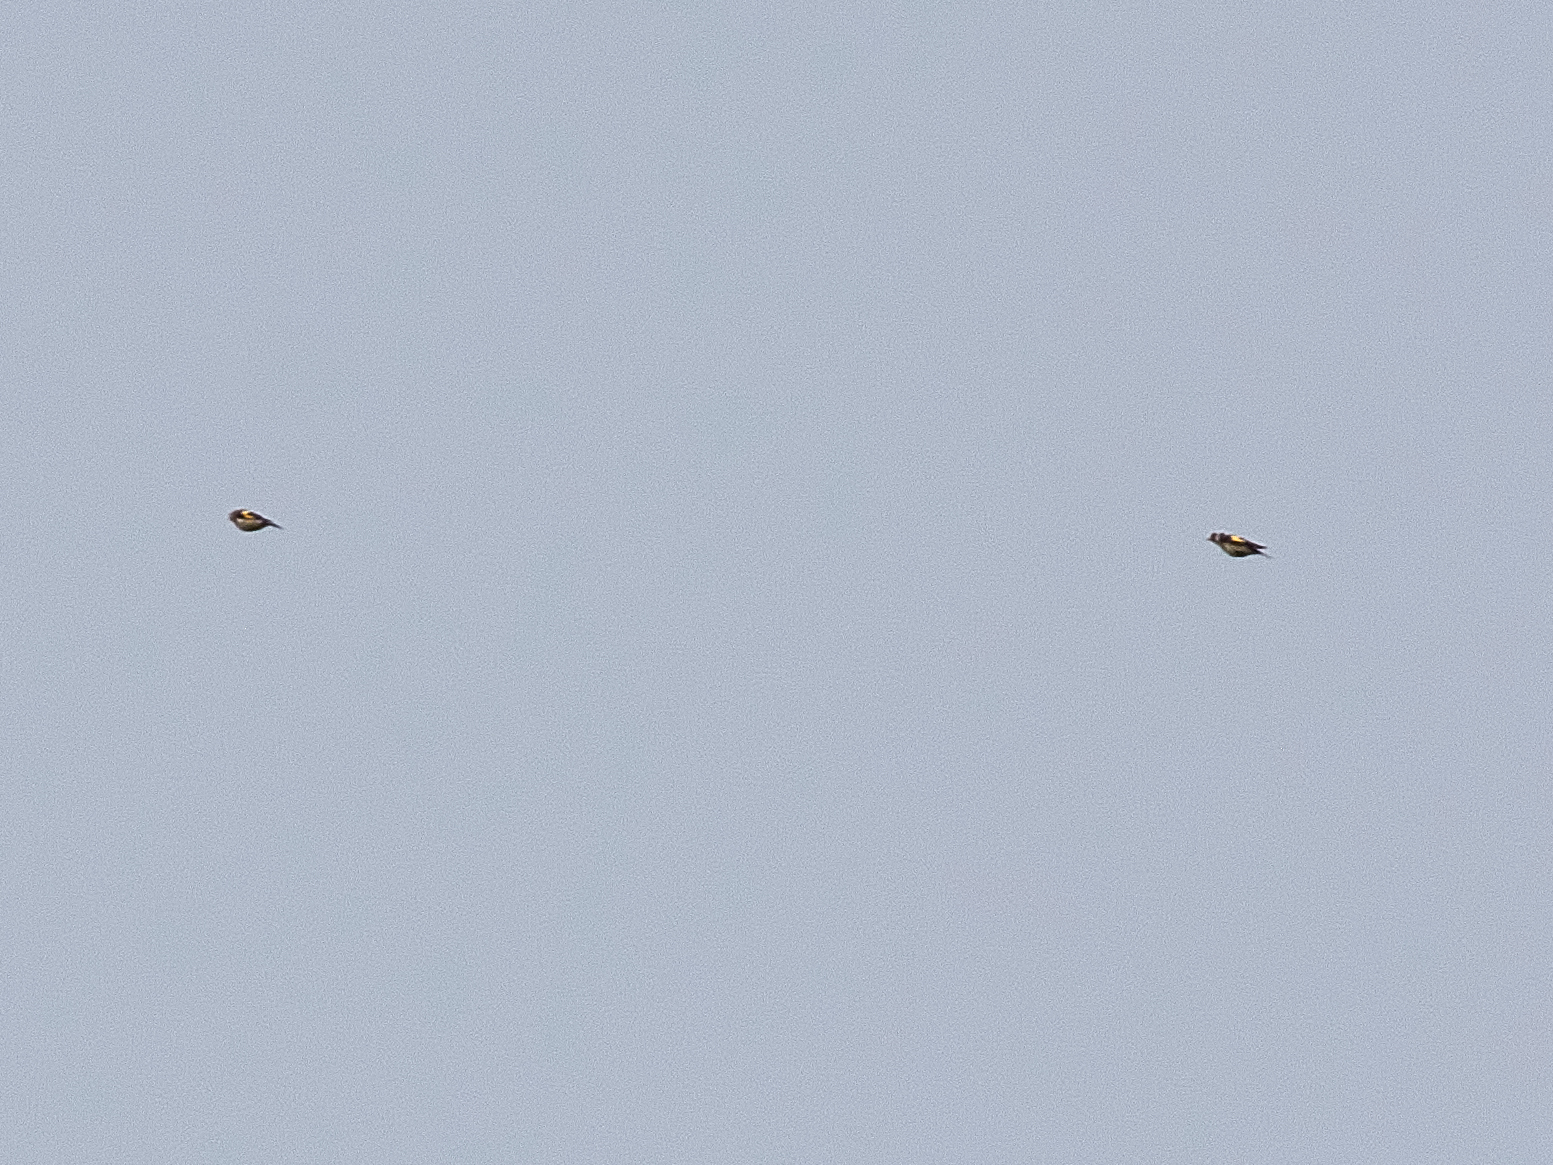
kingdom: Animalia
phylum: Chordata
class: Aves
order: Passeriformes
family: Fringillidae
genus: Carduelis
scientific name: Carduelis carduelis
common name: European goldfinch
